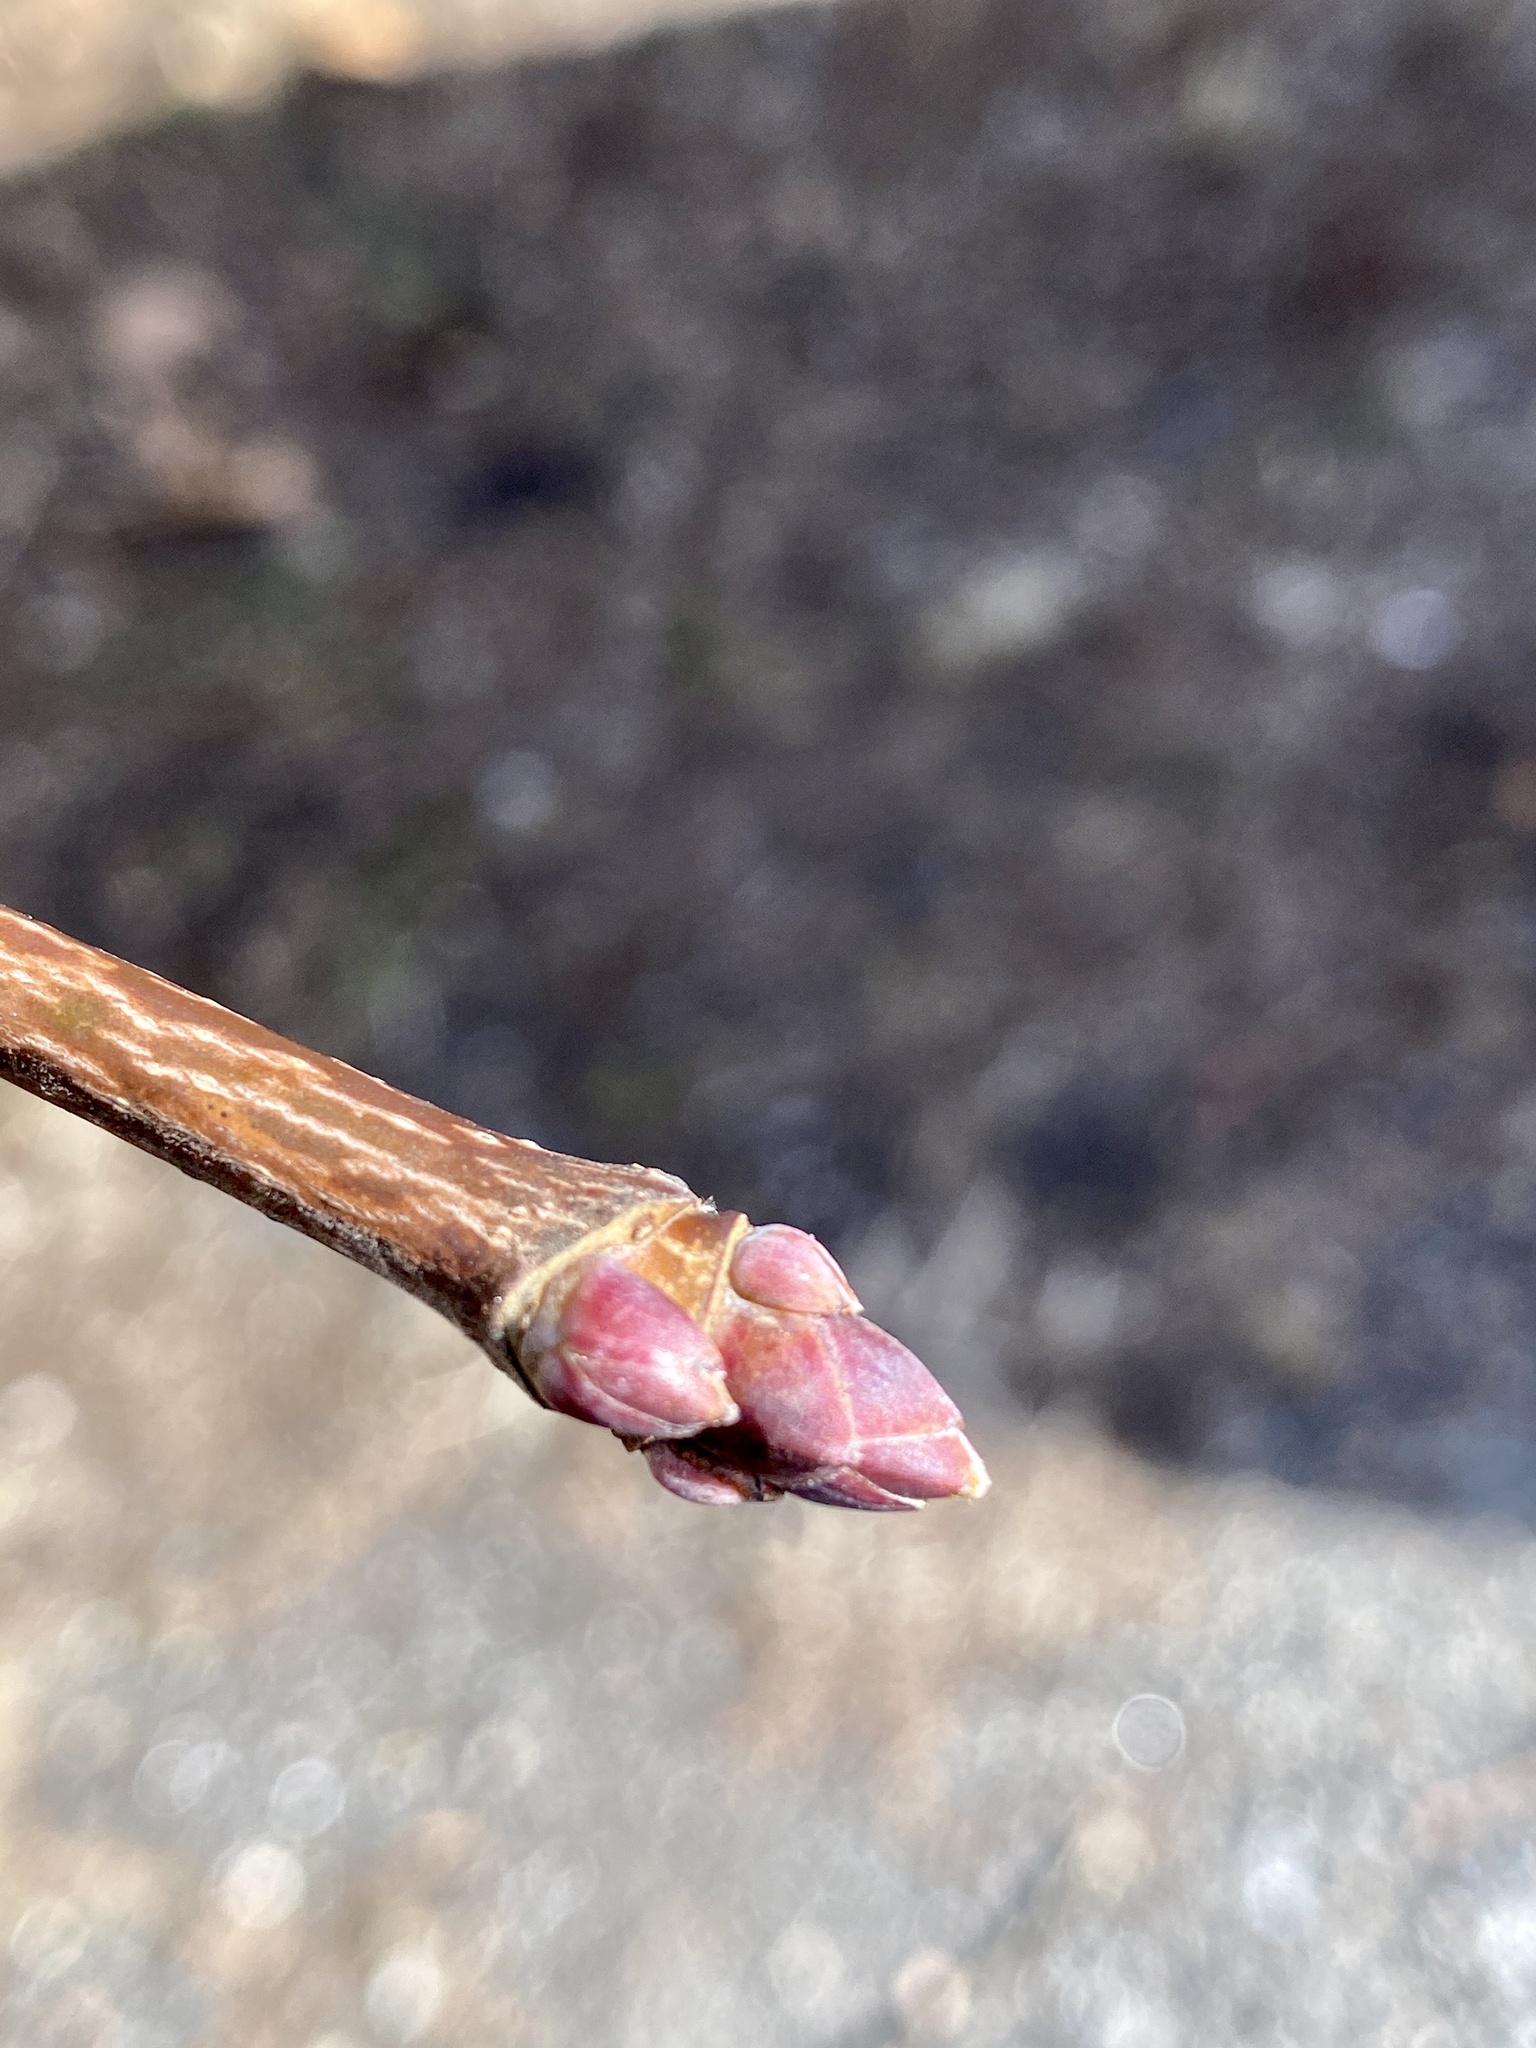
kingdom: Plantae
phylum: Tracheophyta
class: Magnoliopsida
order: Sapindales
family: Sapindaceae
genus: Acer
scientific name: Acer platanoides
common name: Norway maple
